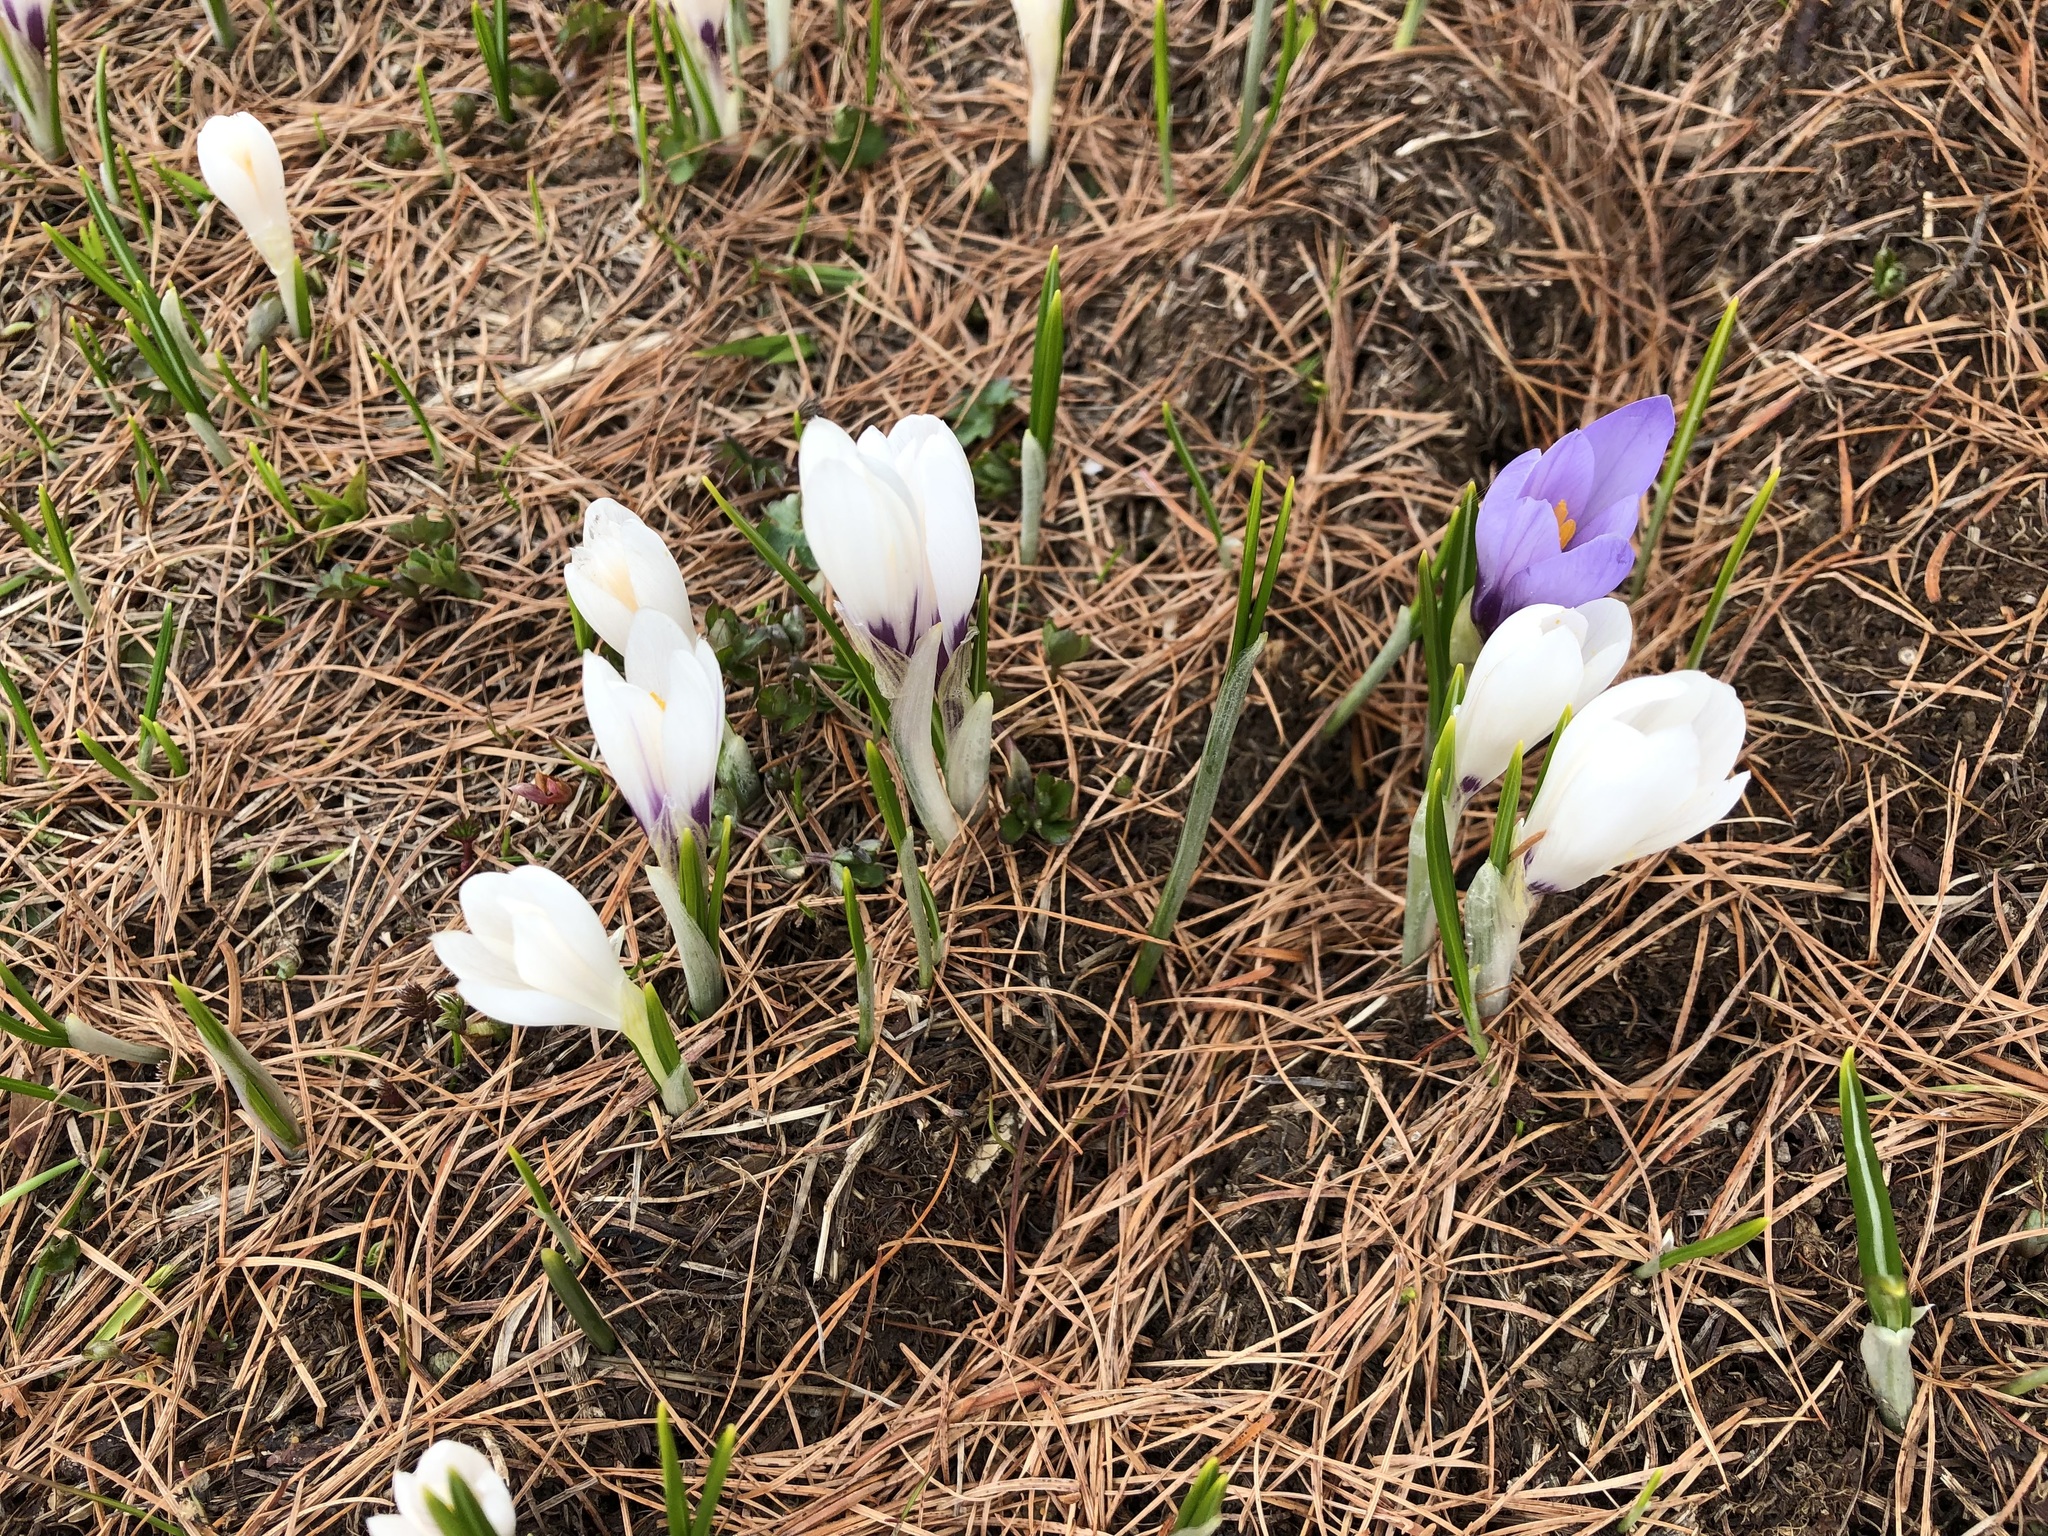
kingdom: Plantae
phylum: Tracheophyta
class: Liliopsida
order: Asparagales
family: Iridaceae
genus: Crocus
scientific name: Crocus vernus
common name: Spring crocus
